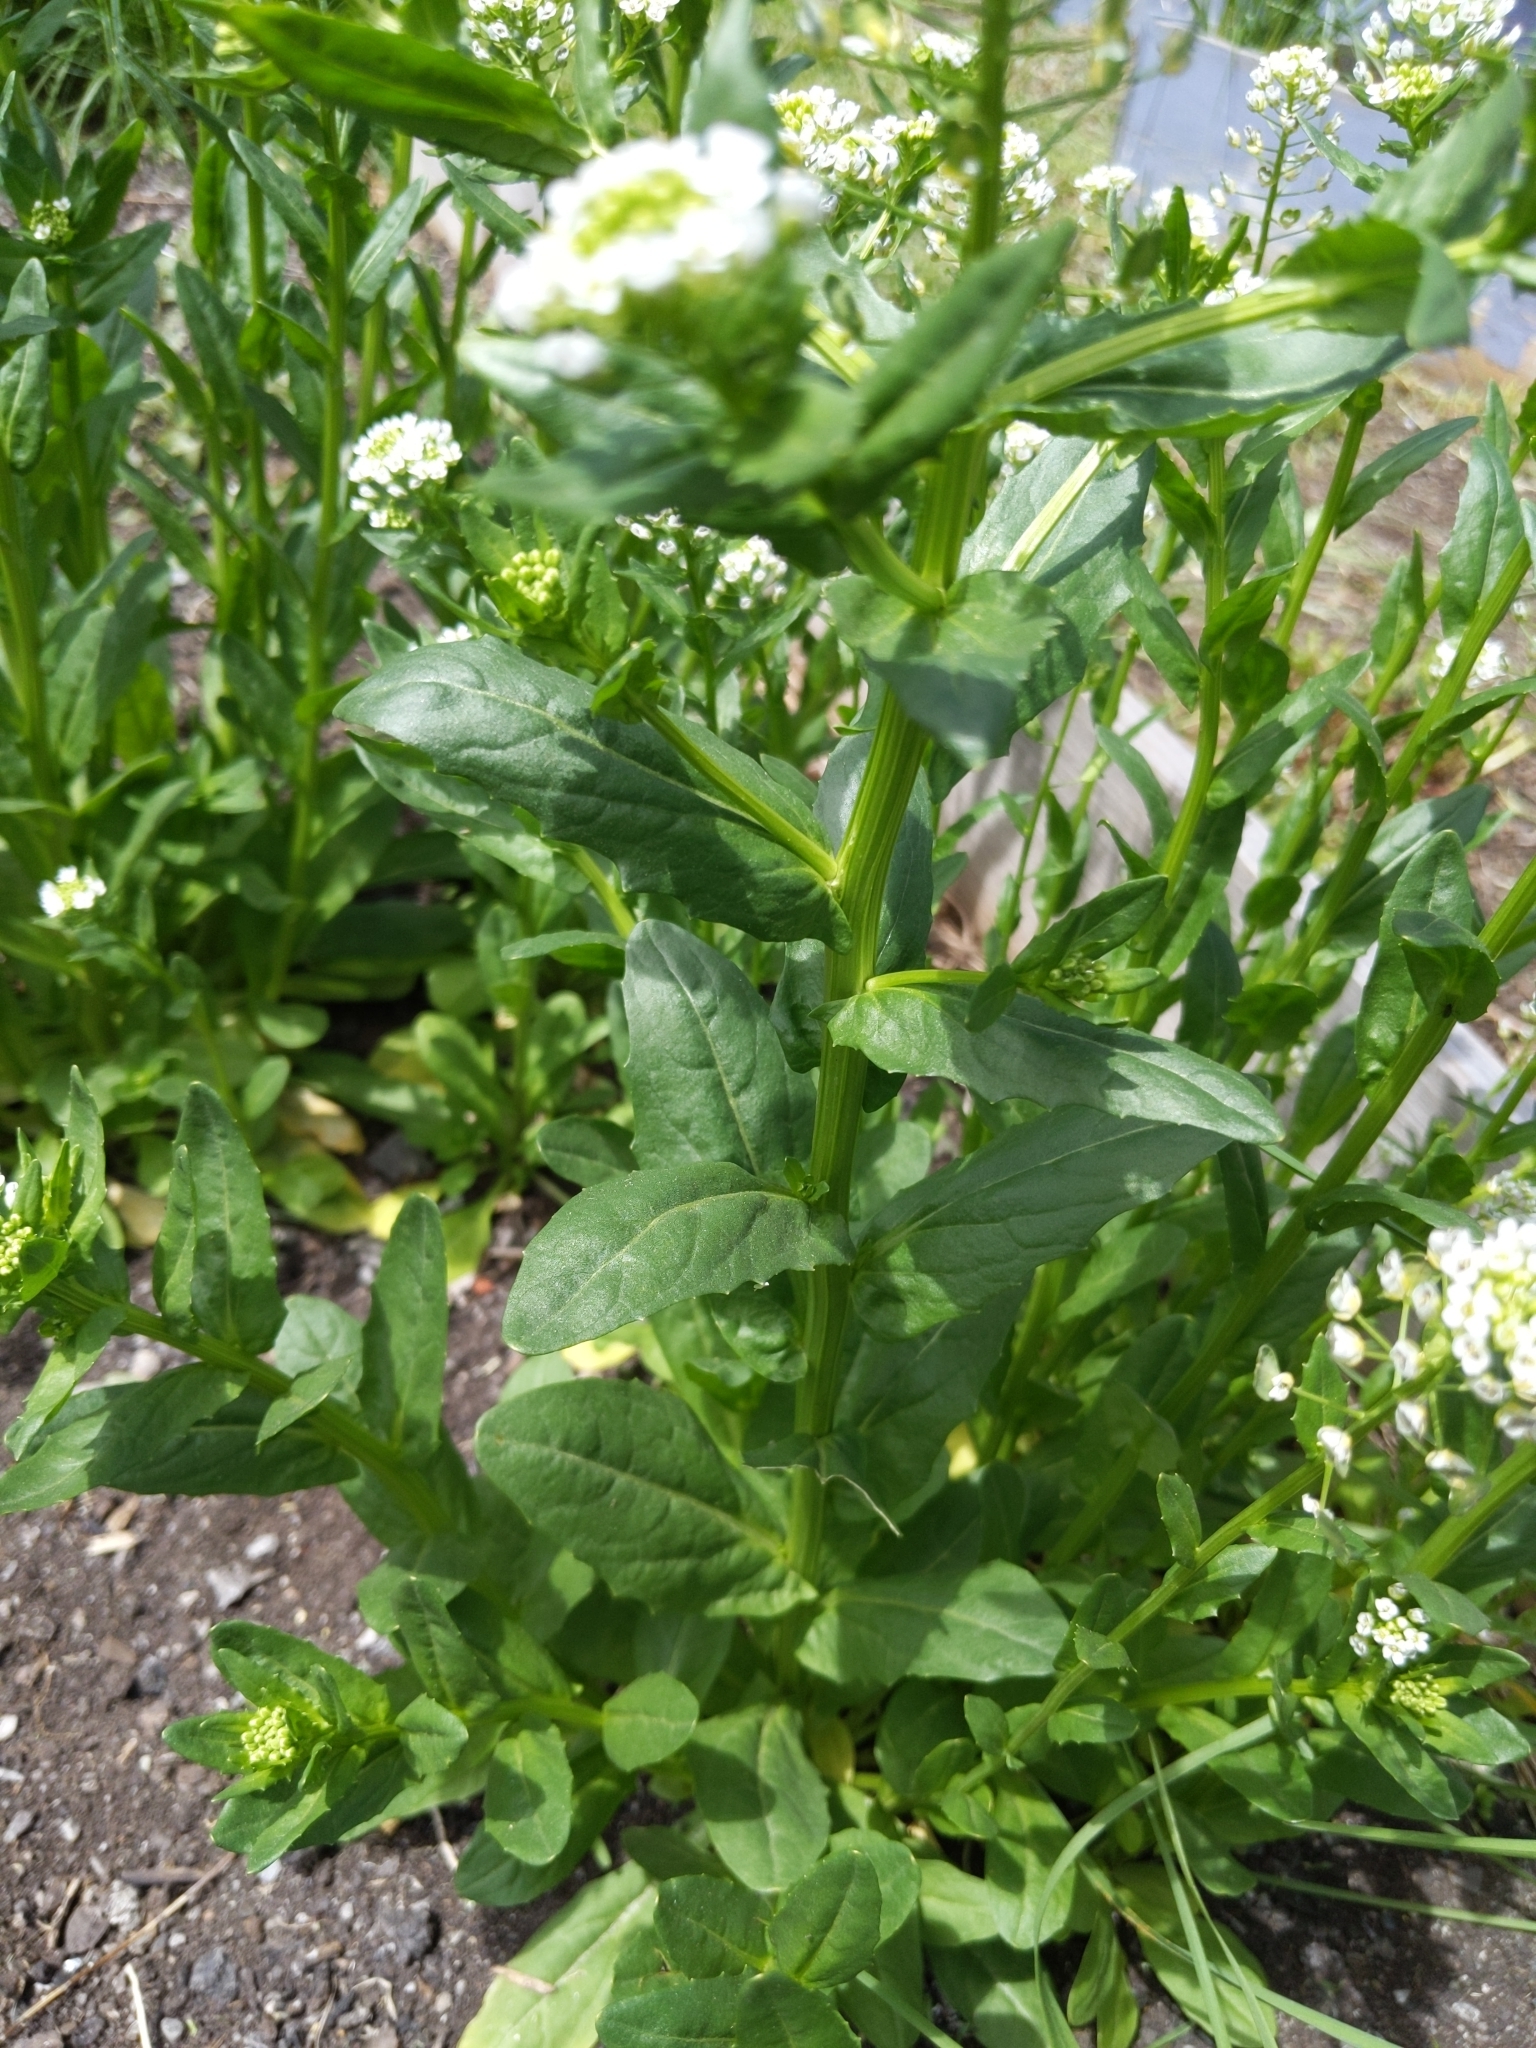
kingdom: Plantae
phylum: Tracheophyta
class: Magnoliopsida
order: Brassicales
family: Brassicaceae
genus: Thlaspi
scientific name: Thlaspi arvense
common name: Field pennycress
